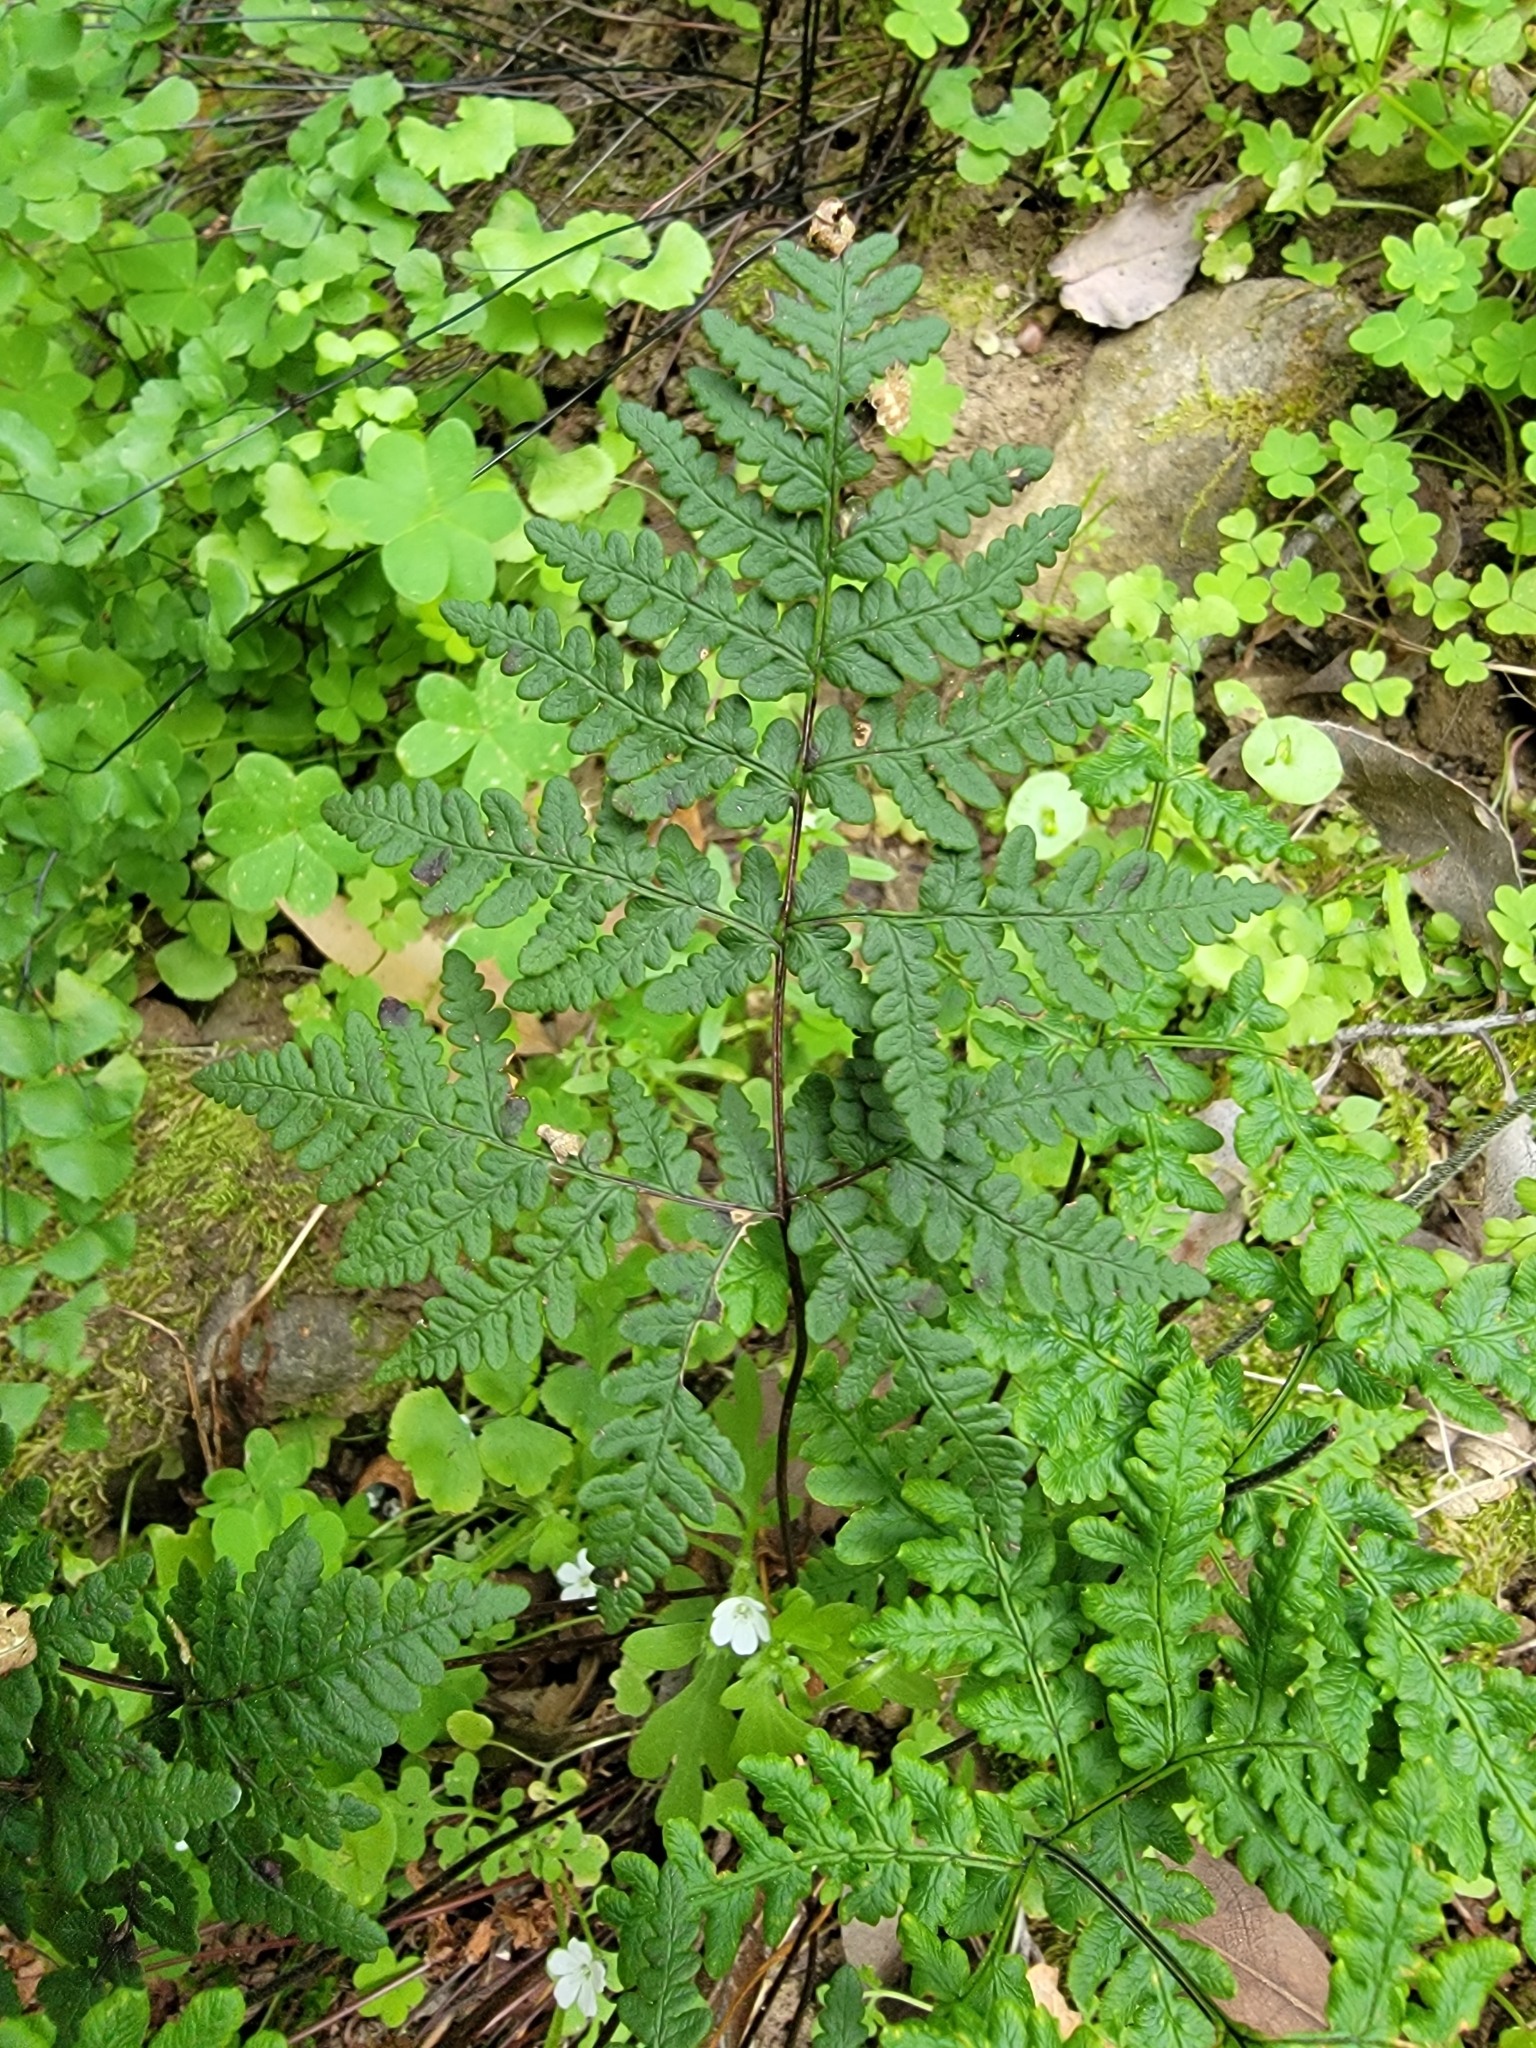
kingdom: Plantae
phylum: Tracheophyta
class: Polypodiopsida
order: Polypodiales
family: Pteridaceae
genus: Pentagramma
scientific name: Pentagramma triangularis
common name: Gold fern
